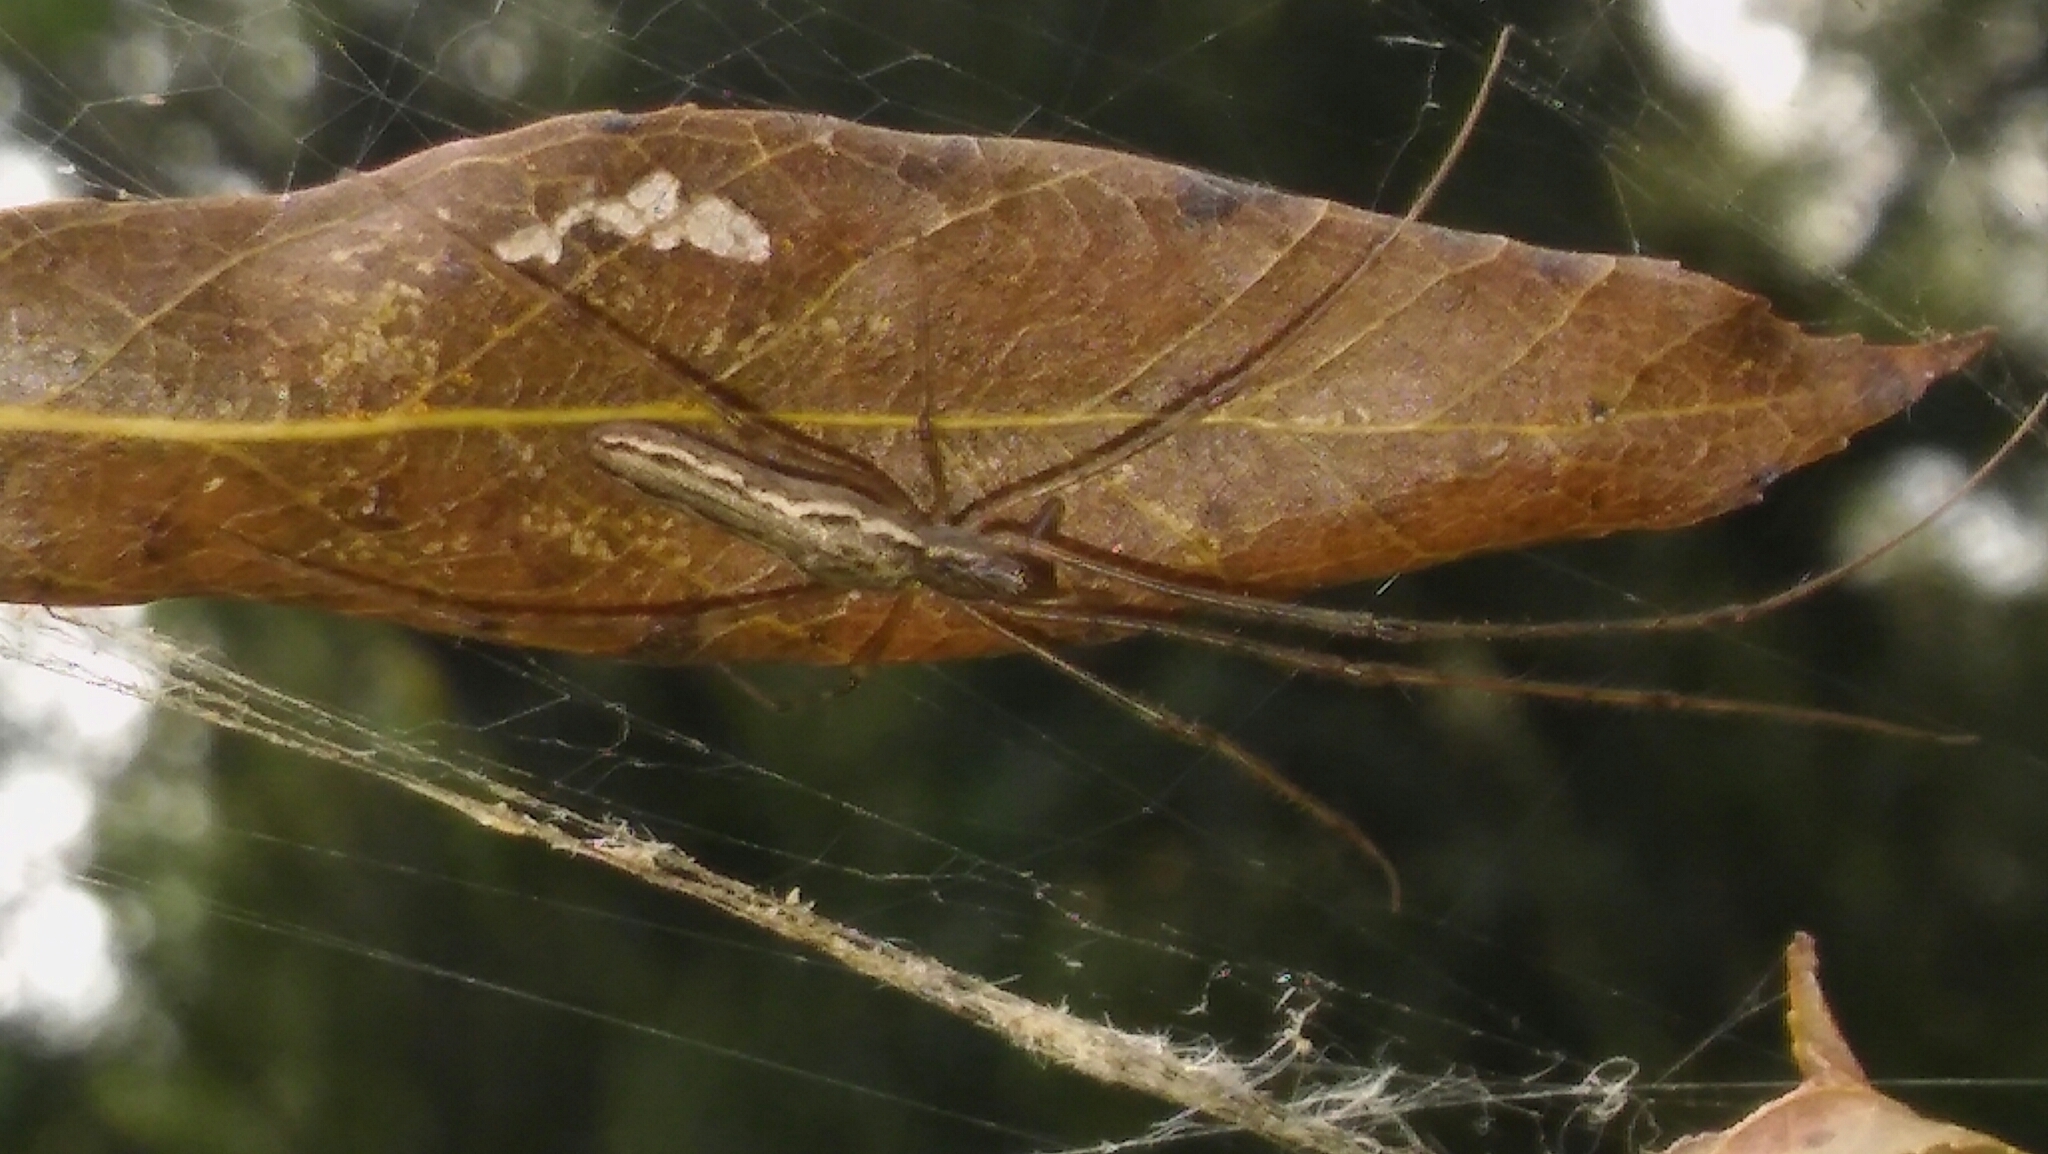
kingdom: Animalia
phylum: Arthropoda
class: Arachnida
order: Araneae
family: Tetragnathidae
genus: Tetragnatha
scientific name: Tetragnatha
